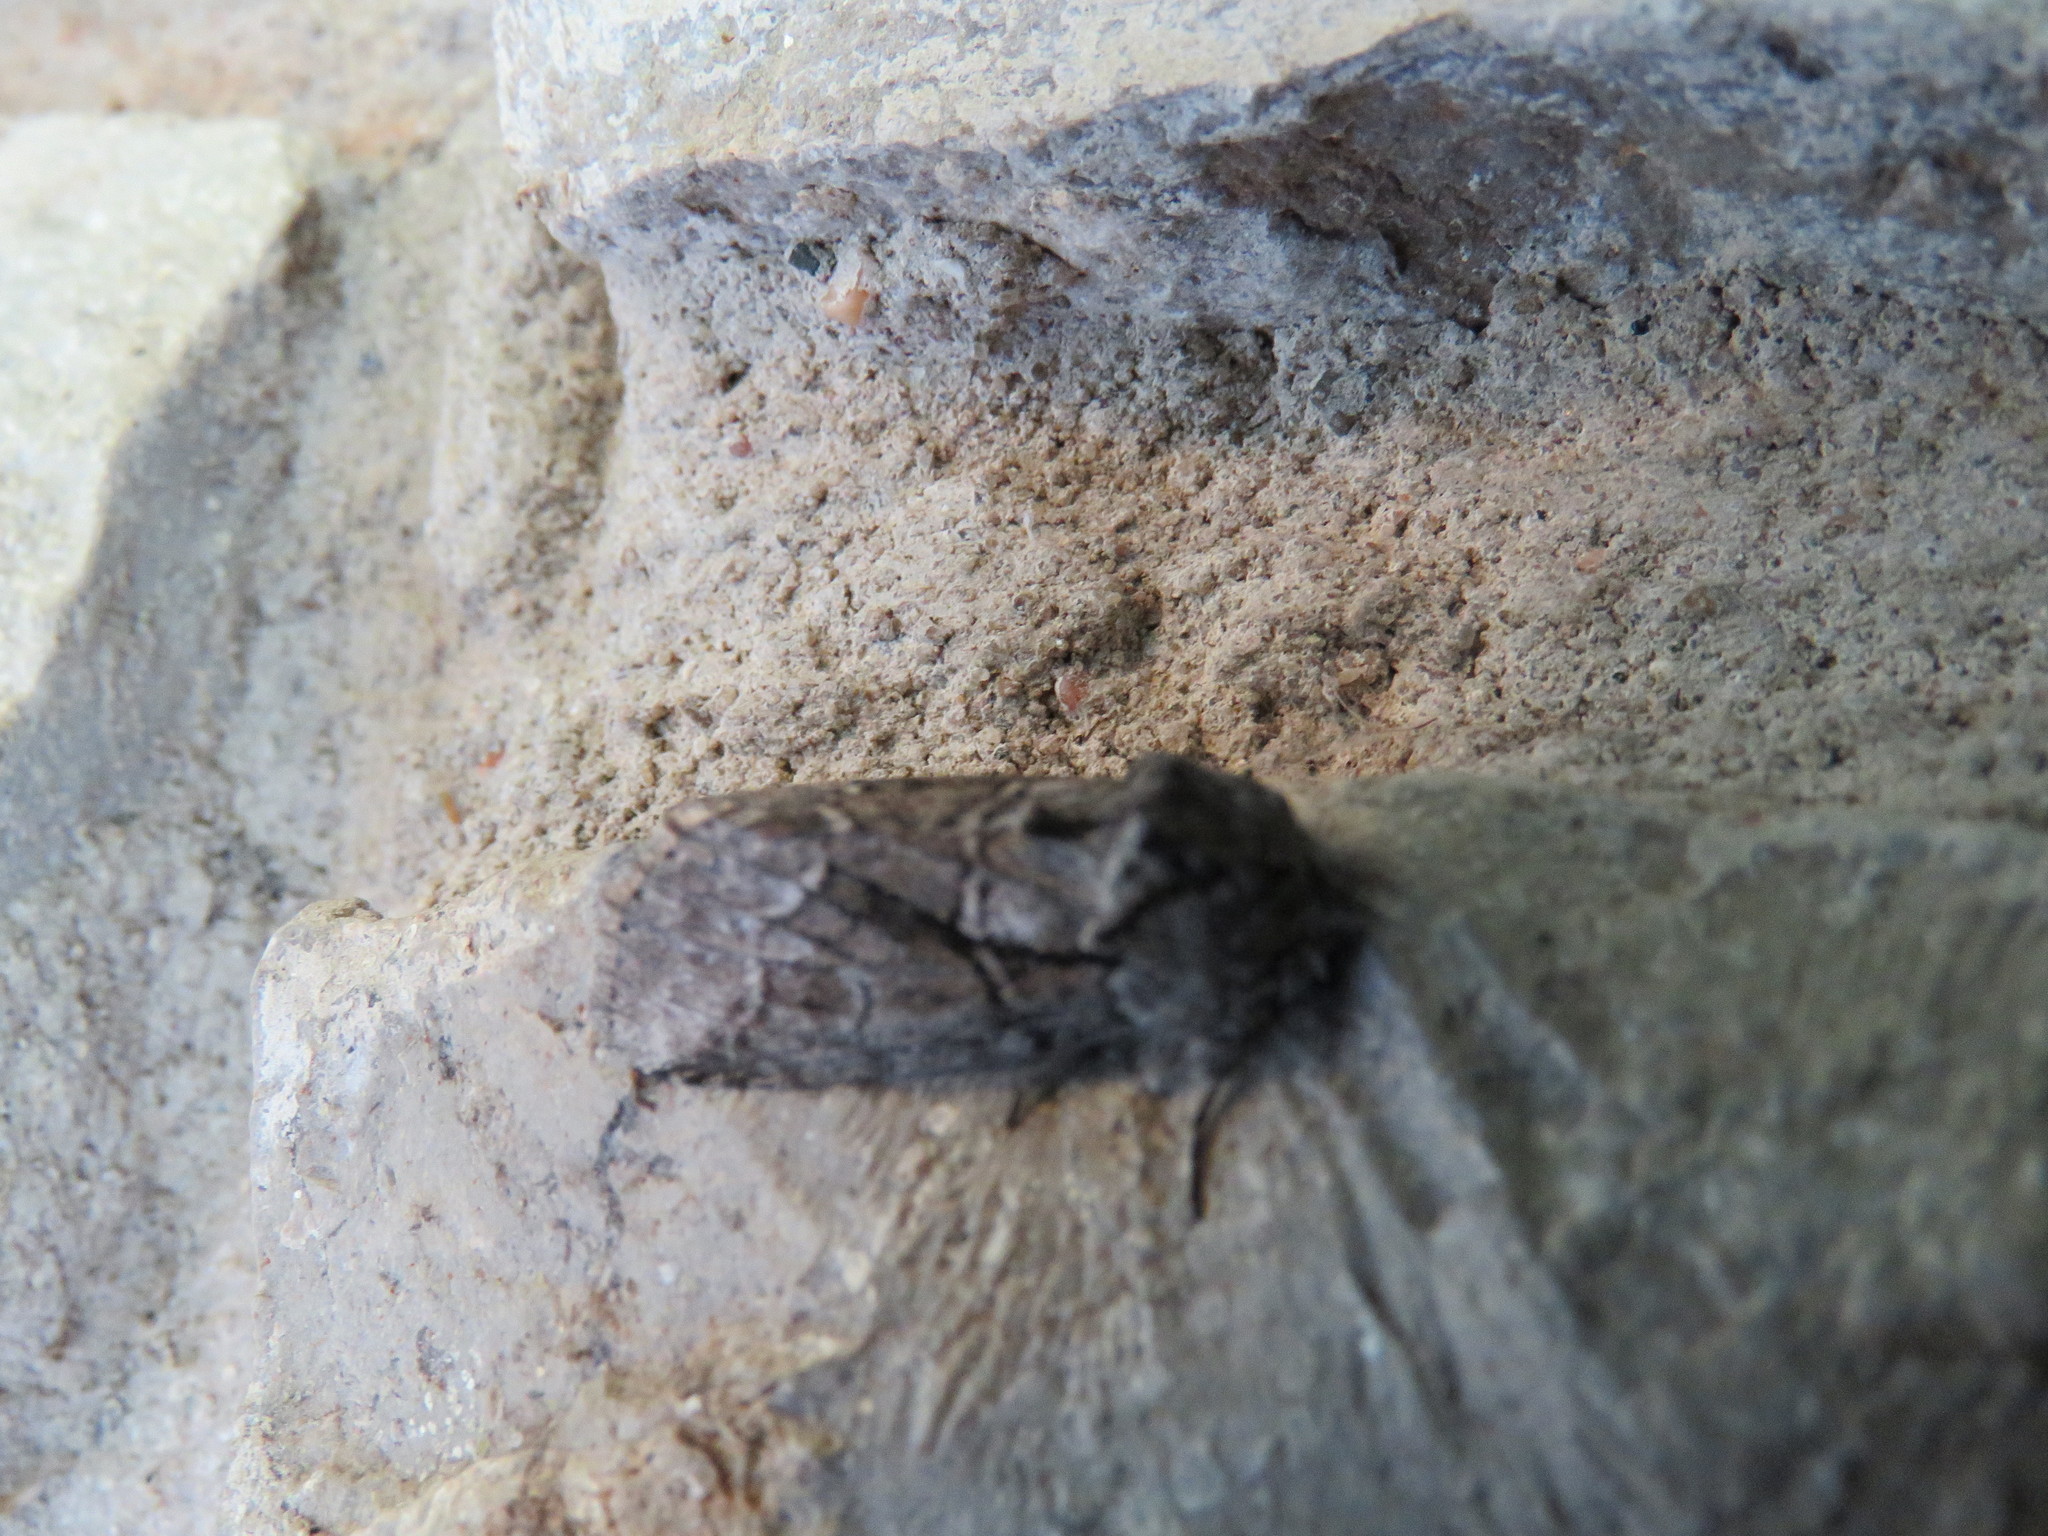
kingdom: Animalia
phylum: Arthropoda
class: Insecta
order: Lepidoptera
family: Notodontidae
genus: Lochmaeus
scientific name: Lochmaeus bilineata
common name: Double-lined prominent
